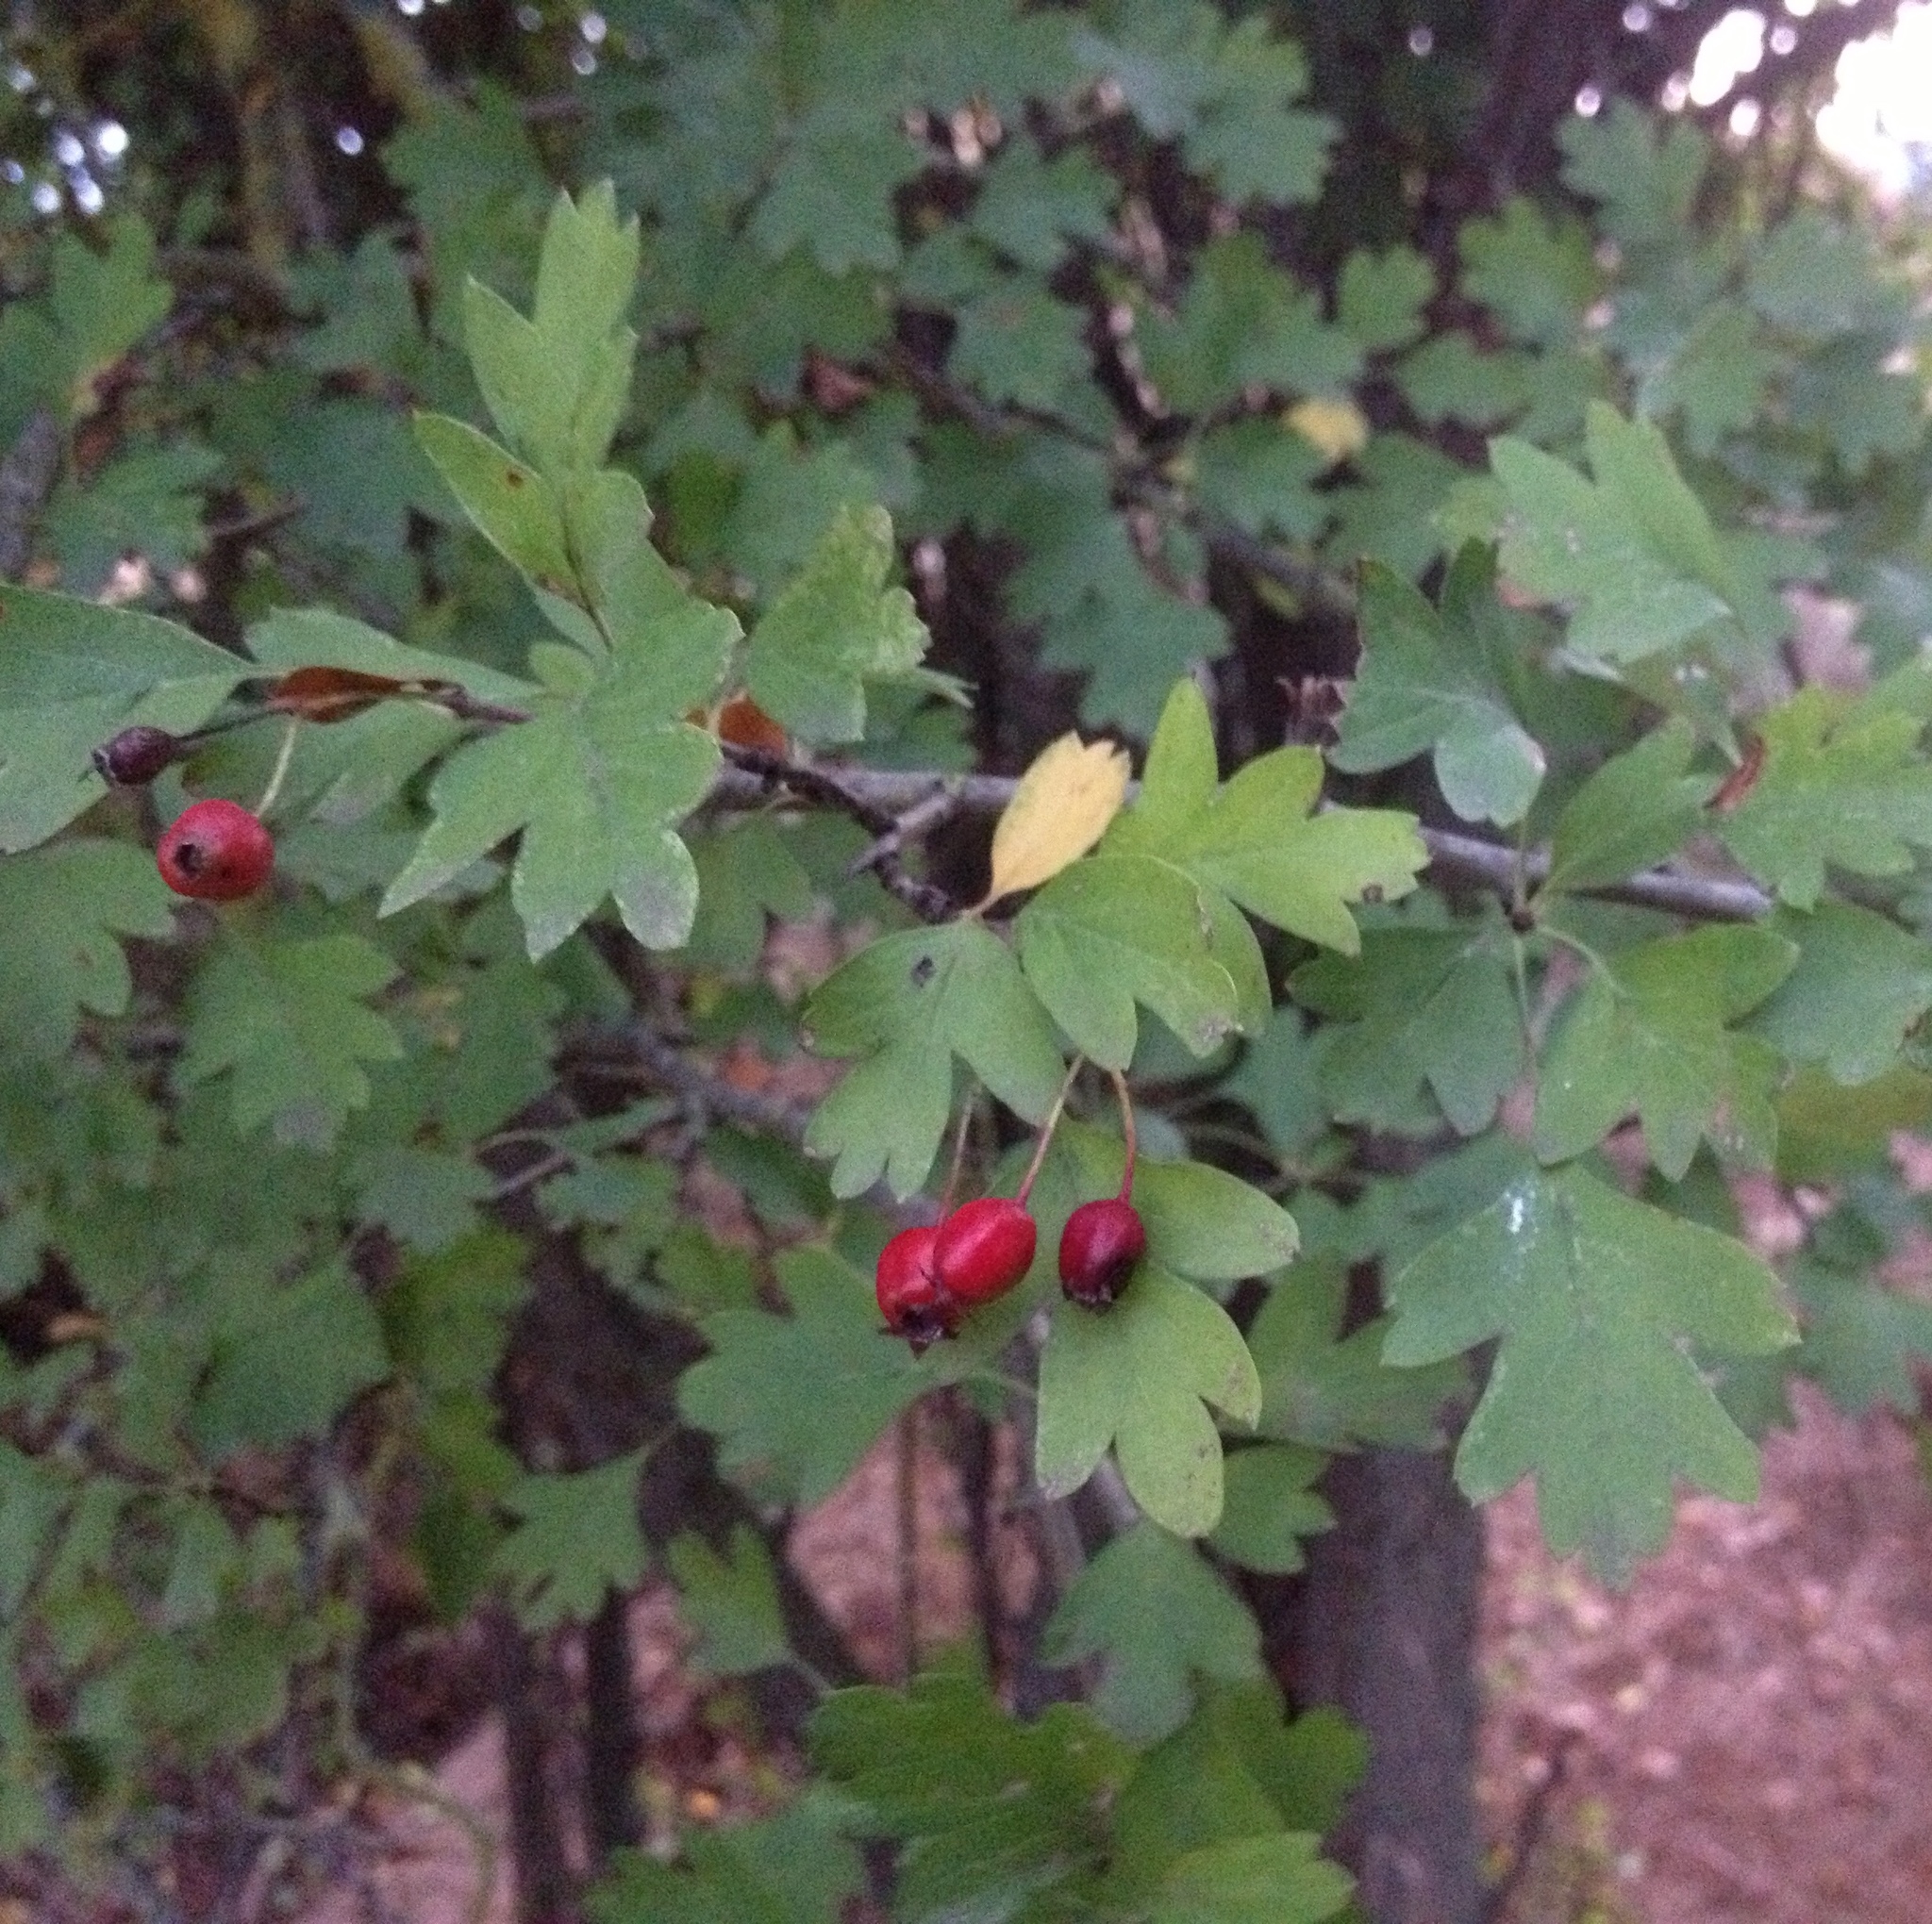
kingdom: Plantae
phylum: Tracheophyta
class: Magnoliopsida
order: Rosales
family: Rosaceae
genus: Crataegus
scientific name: Crataegus monogyna
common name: Hawthorn
